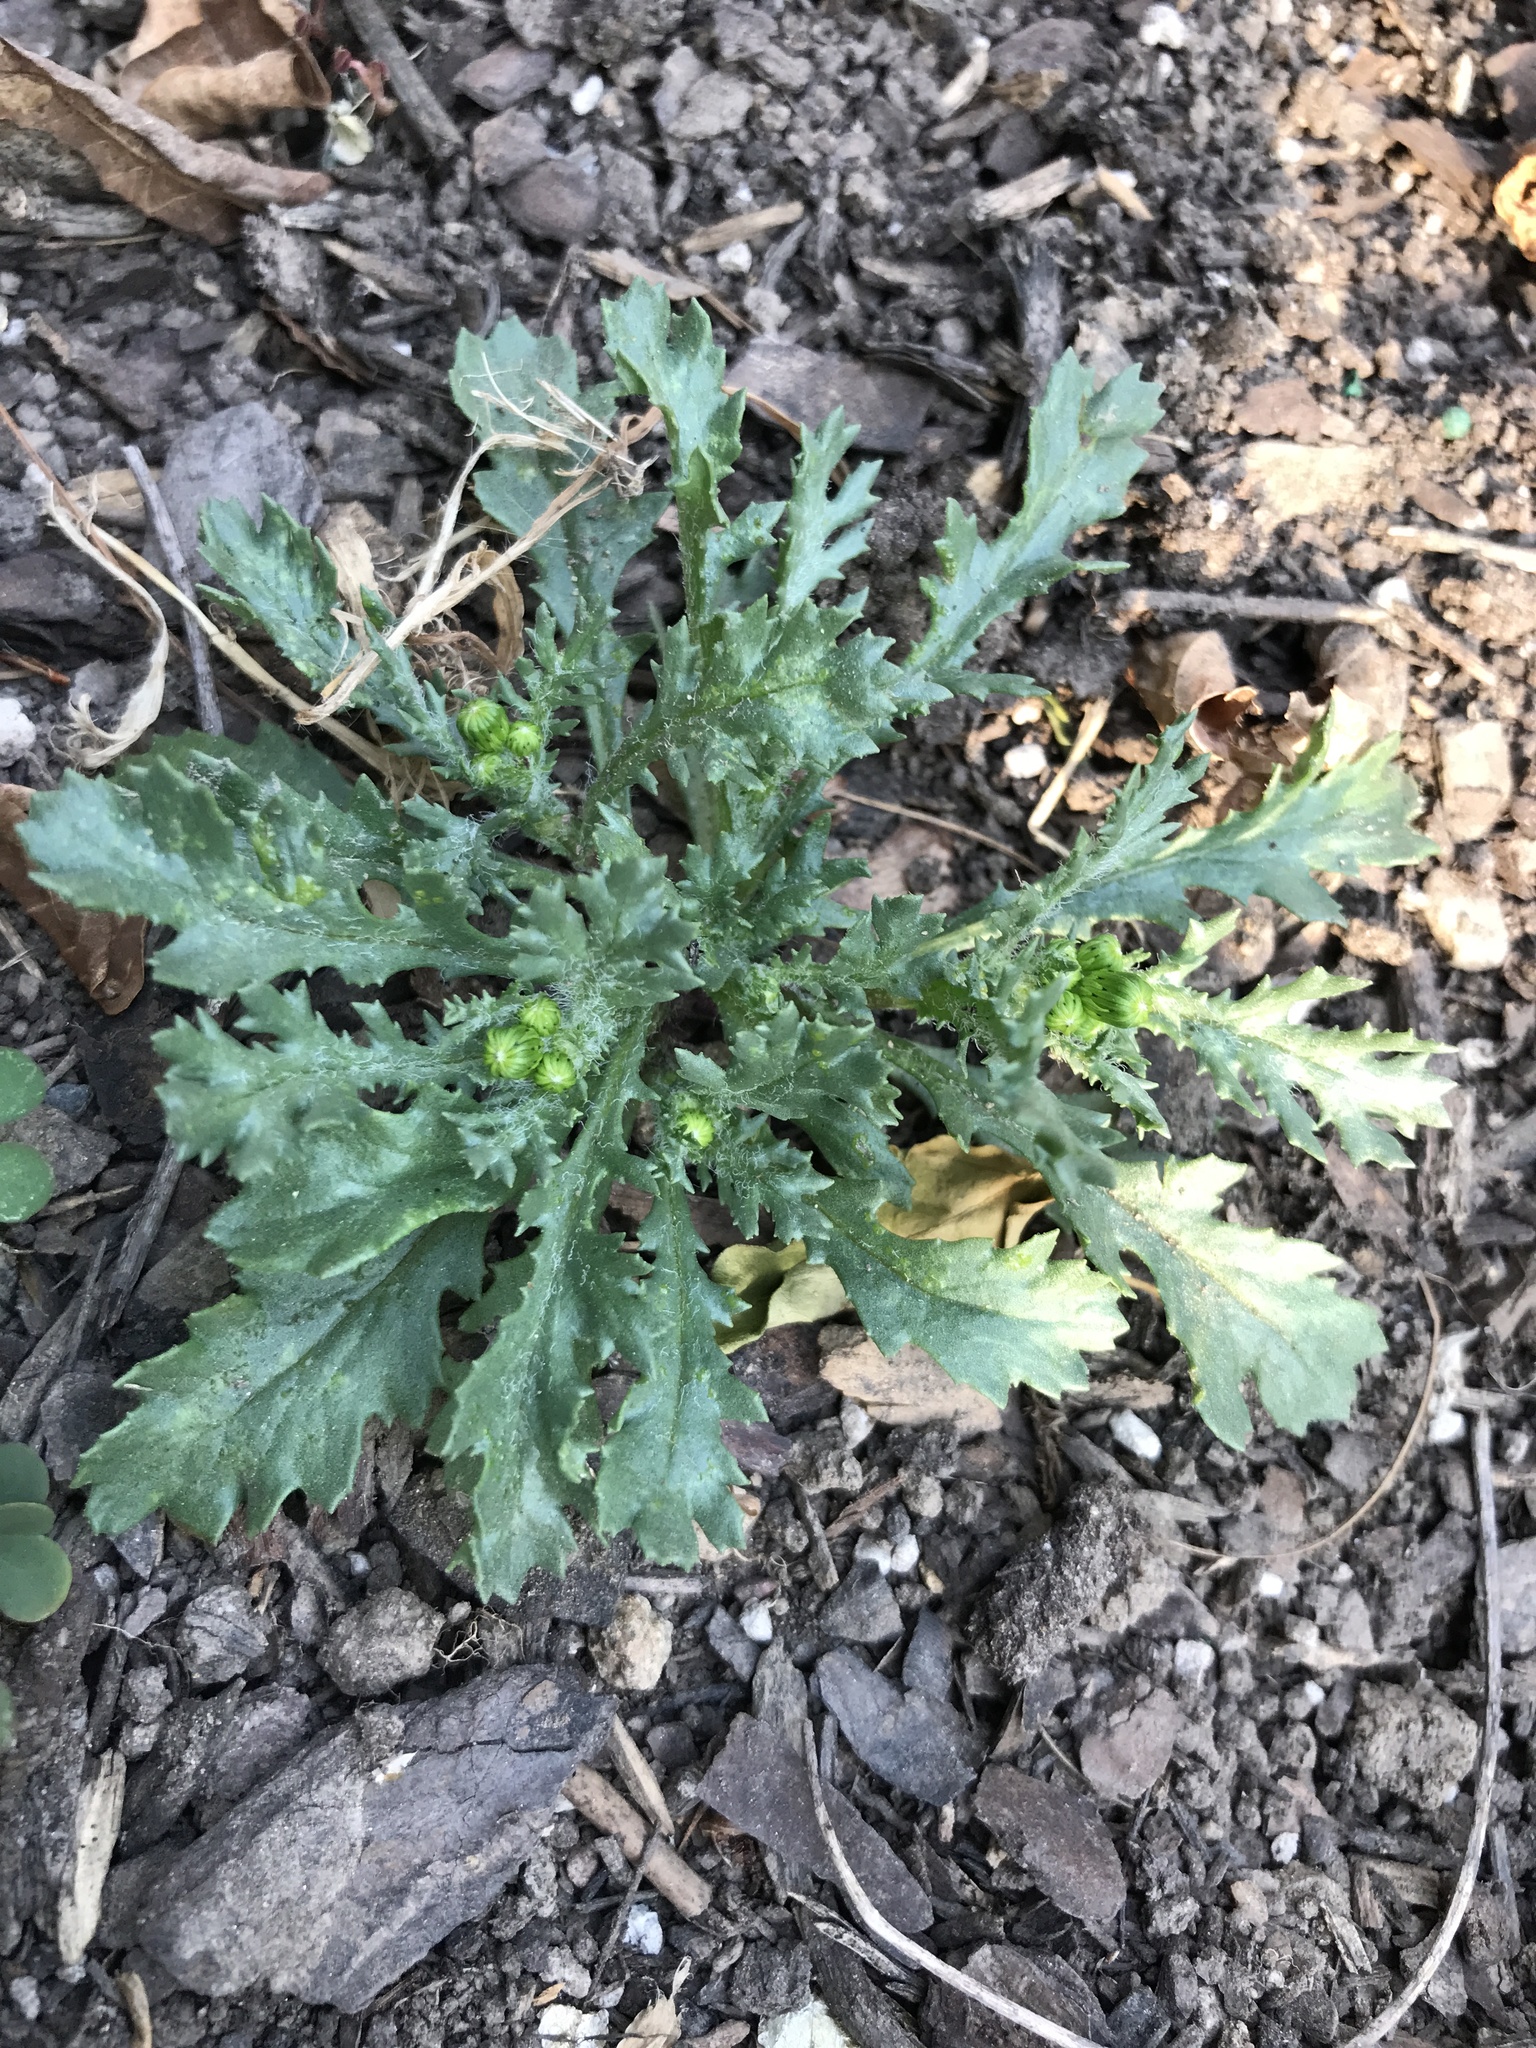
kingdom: Plantae
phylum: Tracheophyta
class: Magnoliopsida
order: Asterales
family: Asteraceae
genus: Senecio
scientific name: Senecio vulgaris
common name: Old-man-in-the-spring
